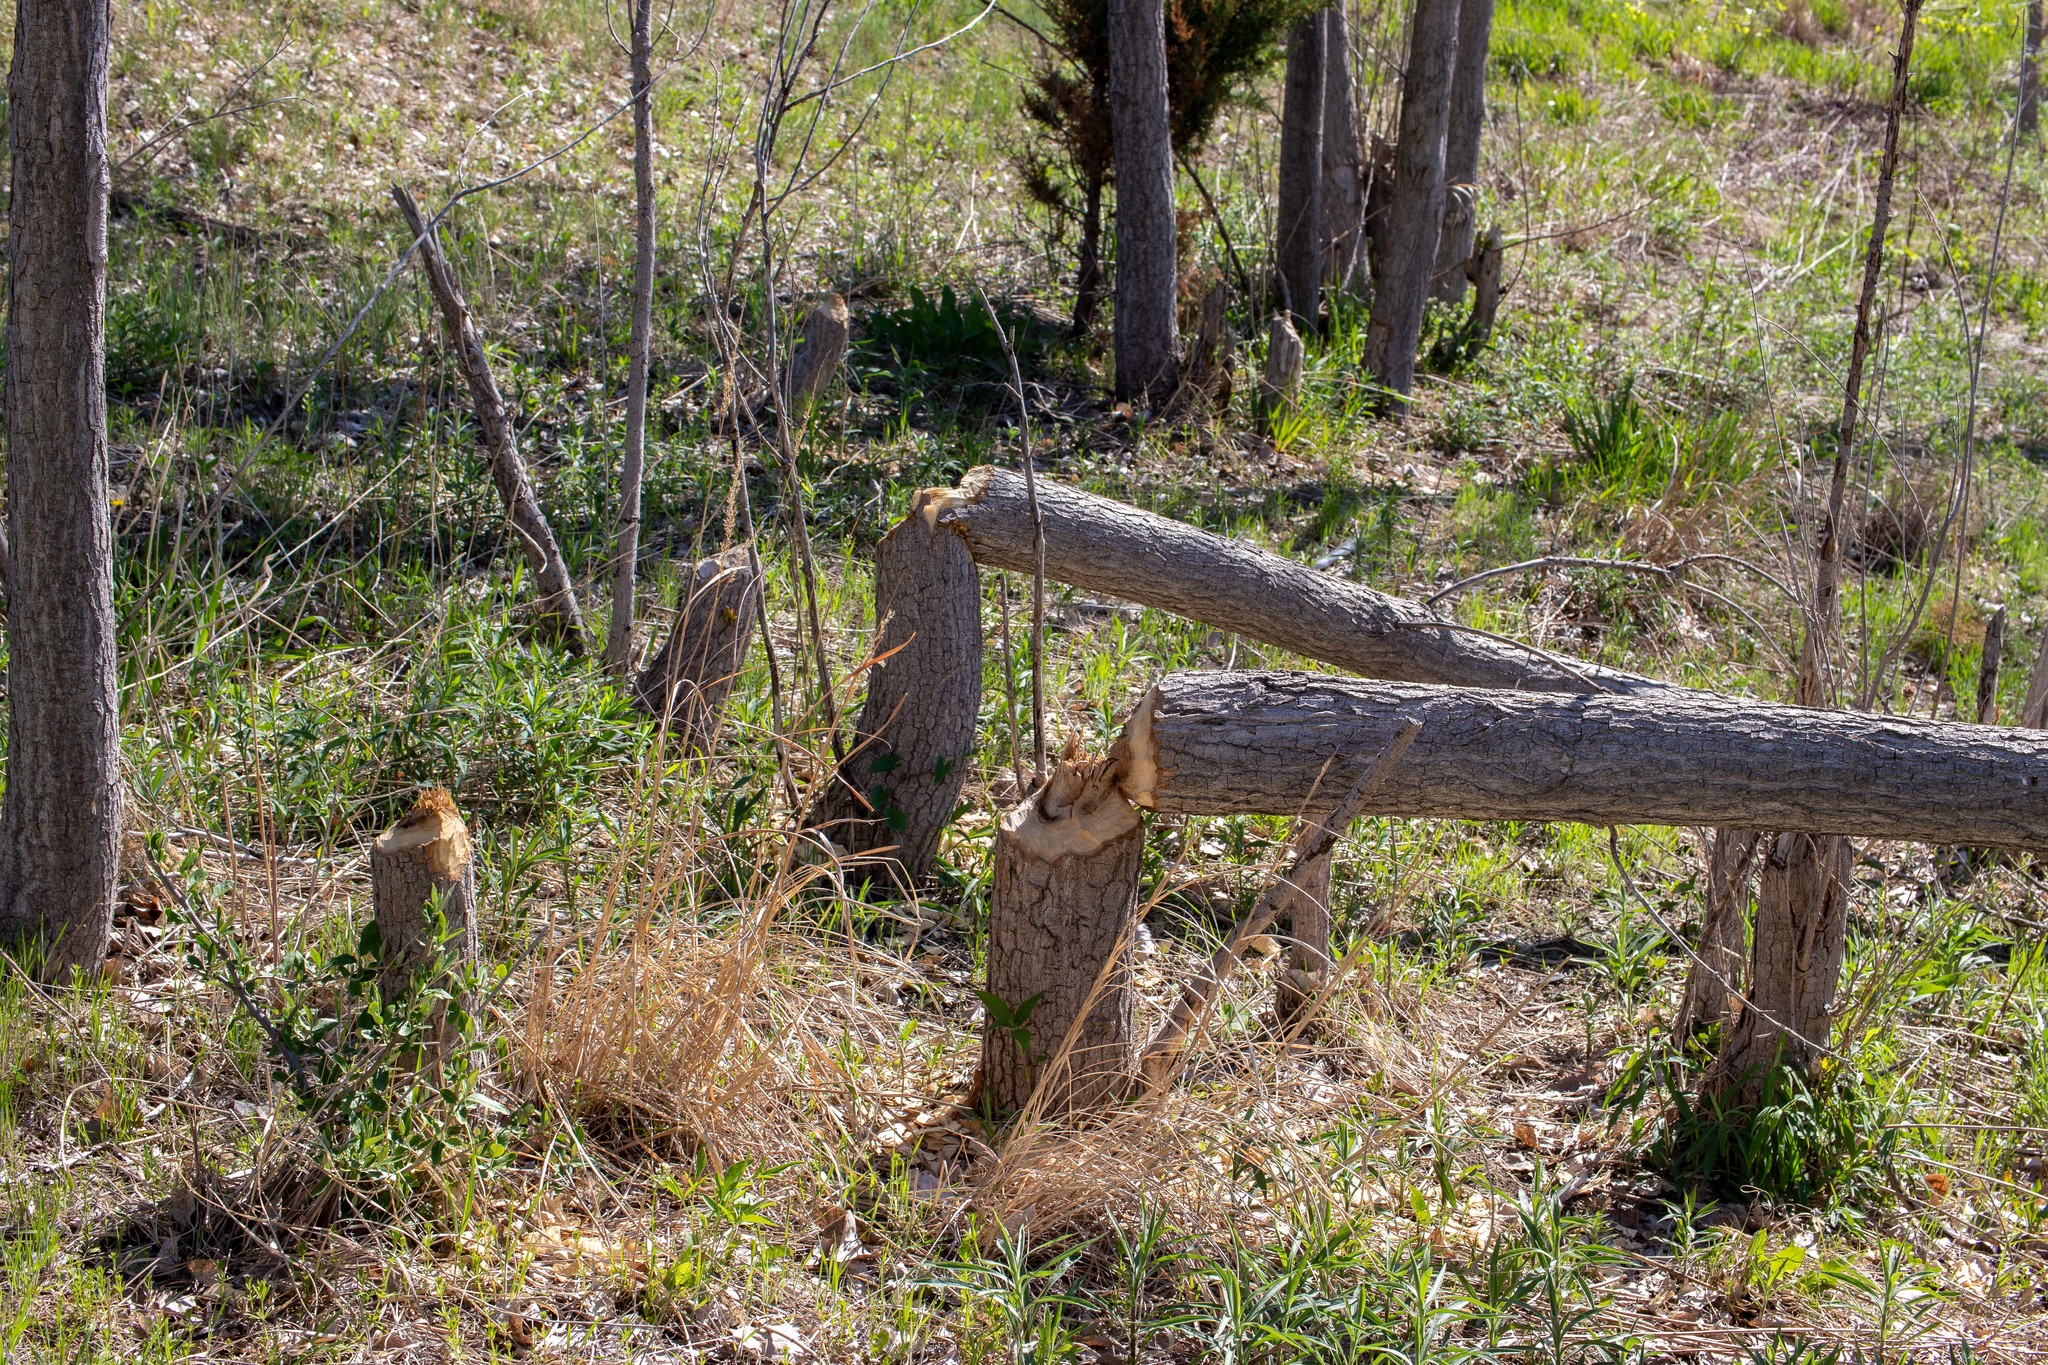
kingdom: Animalia
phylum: Chordata
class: Mammalia
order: Rodentia
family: Castoridae
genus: Castor
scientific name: Castor canadensis
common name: American beaver
